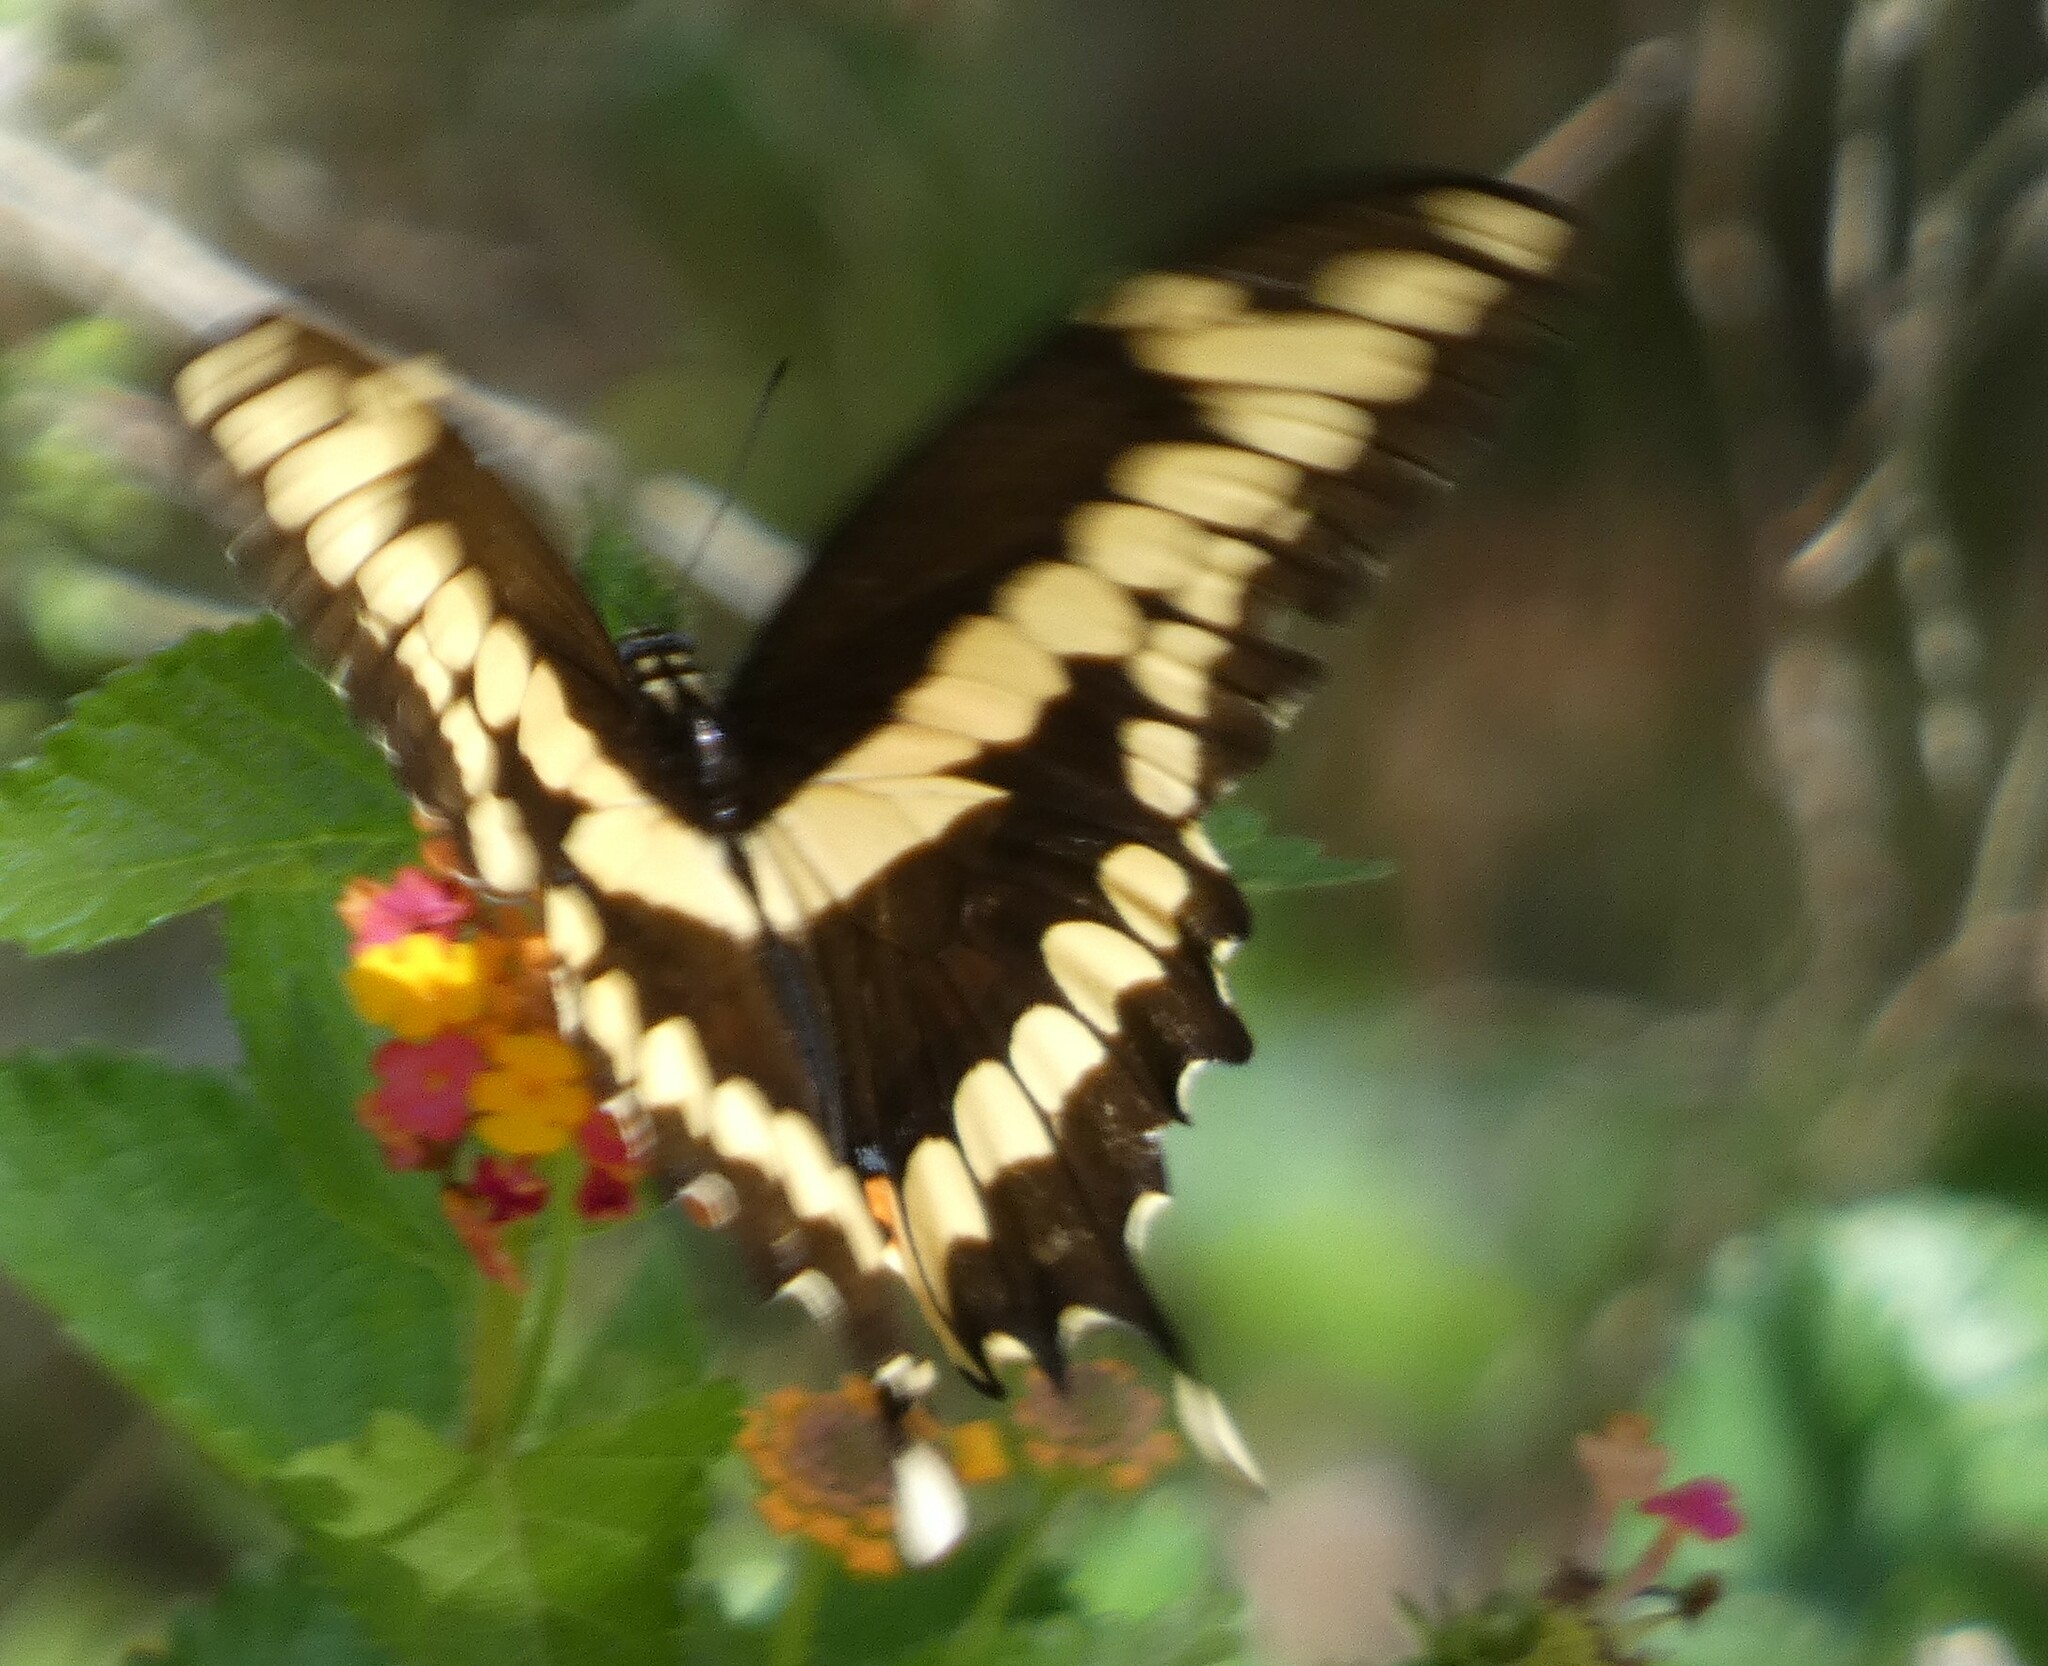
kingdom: Animalia
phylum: Arthropoda
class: Insecta
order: Lepidoptera
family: Papilionidae
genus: Papilio
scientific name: Papilio cresphontes
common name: Giant swallowtail
